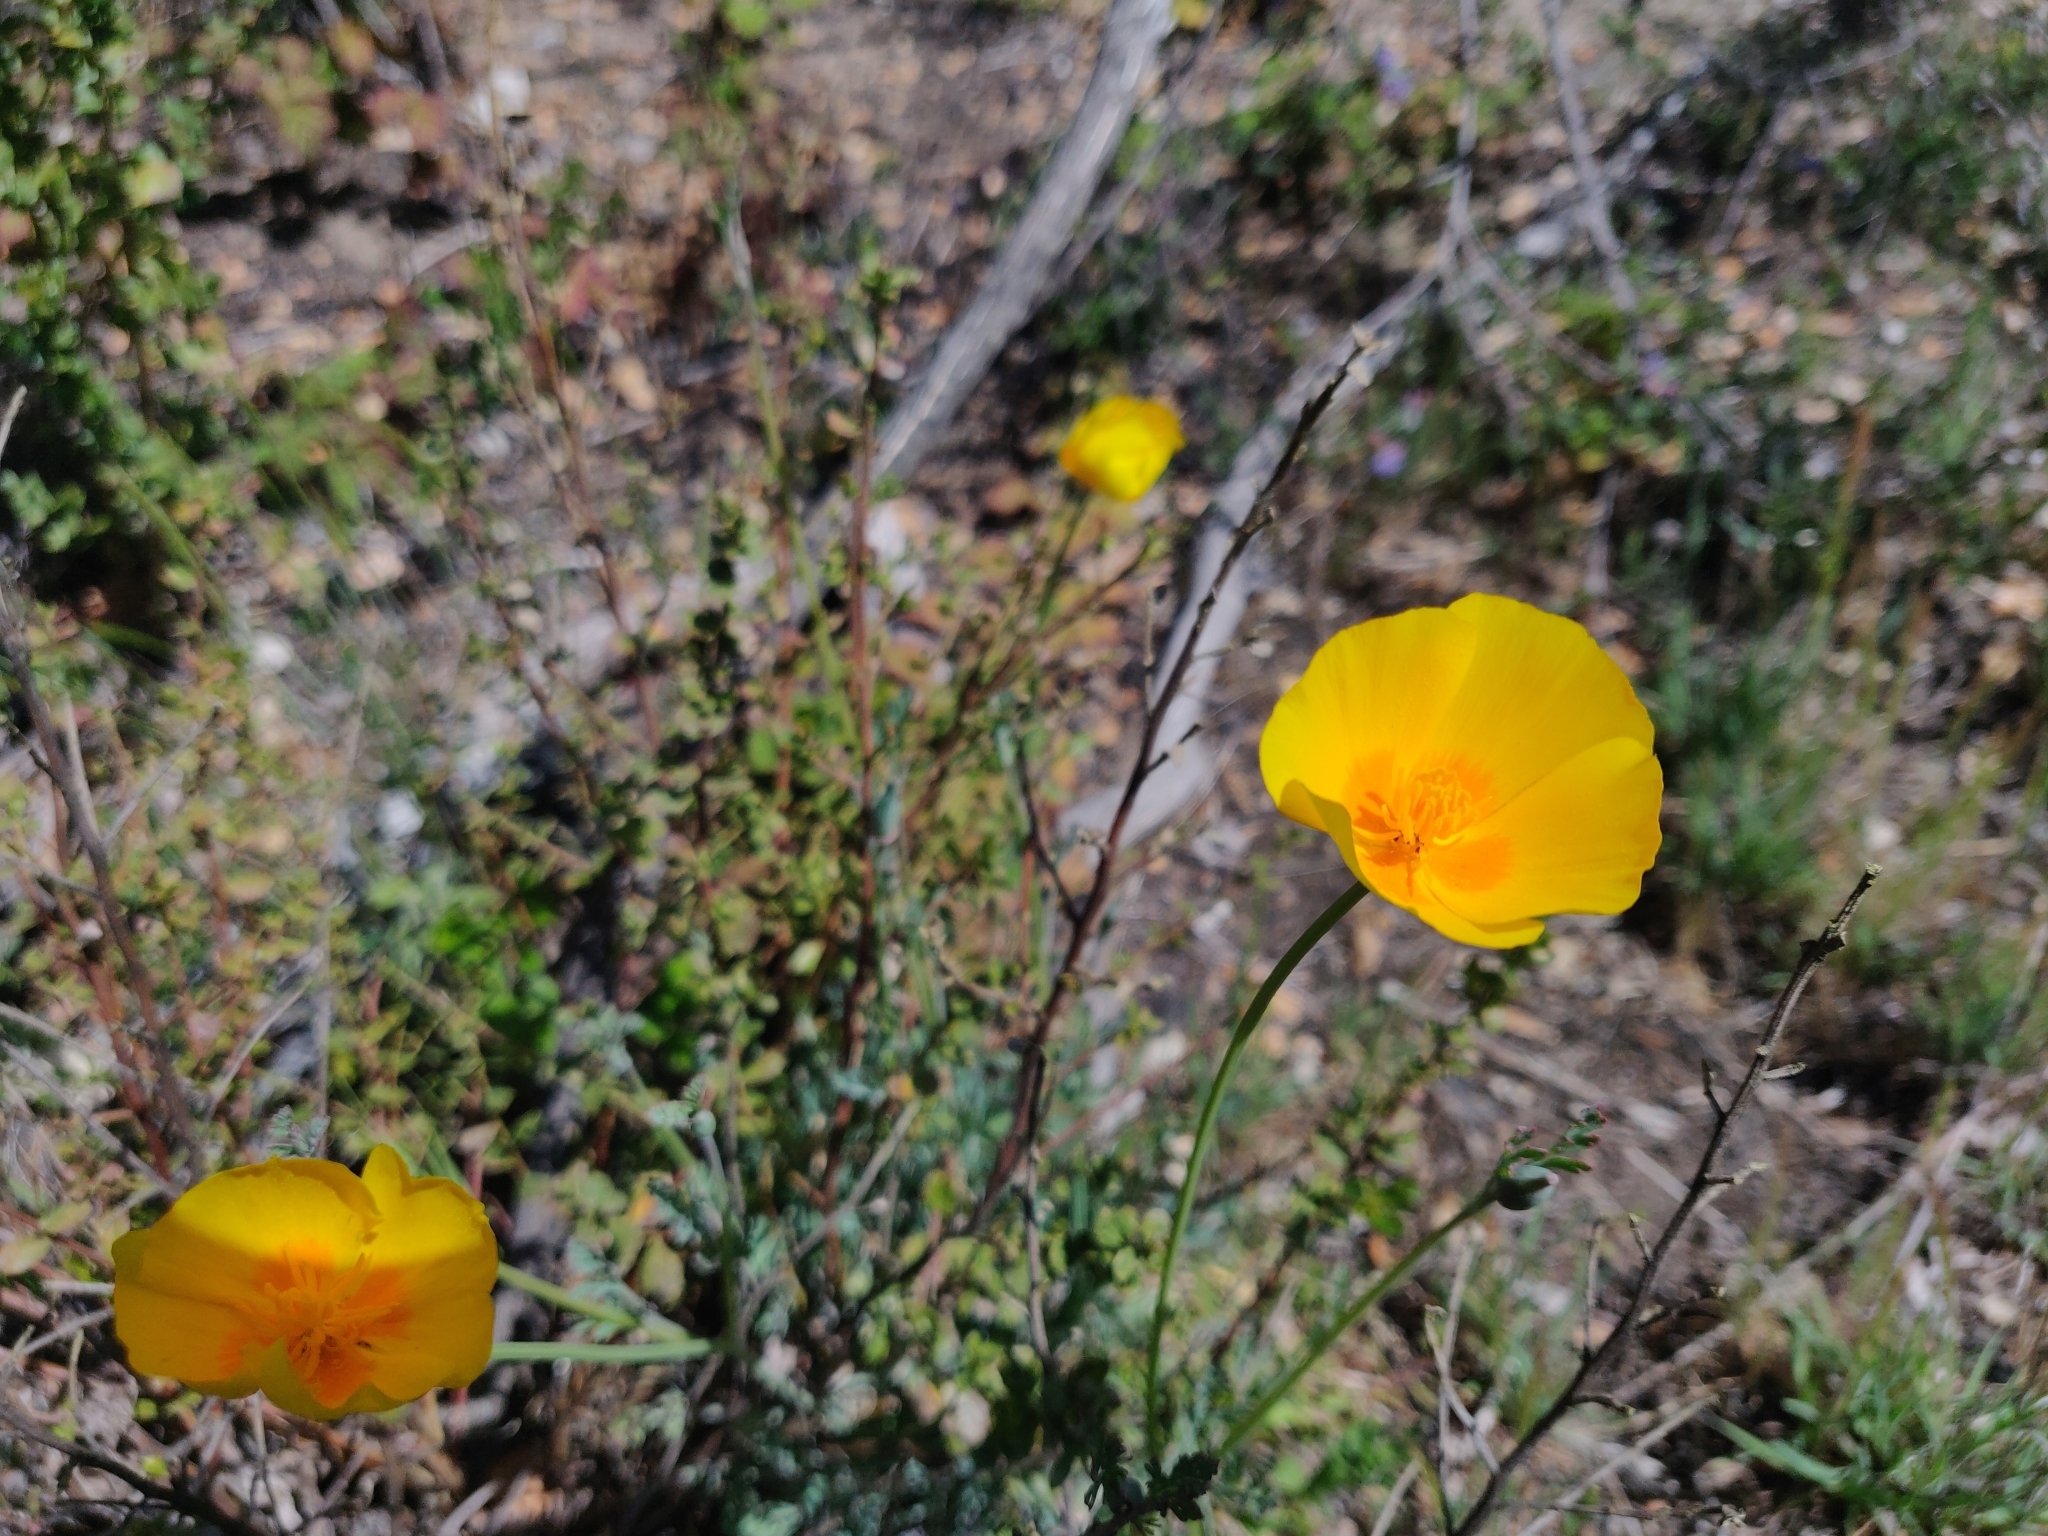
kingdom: Plantae
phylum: Tracheophyta
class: Magnoliopsida
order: Ranunculales
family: Papaveraceae
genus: Eschscholzia
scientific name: Eschscholzia californica
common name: California poppy
